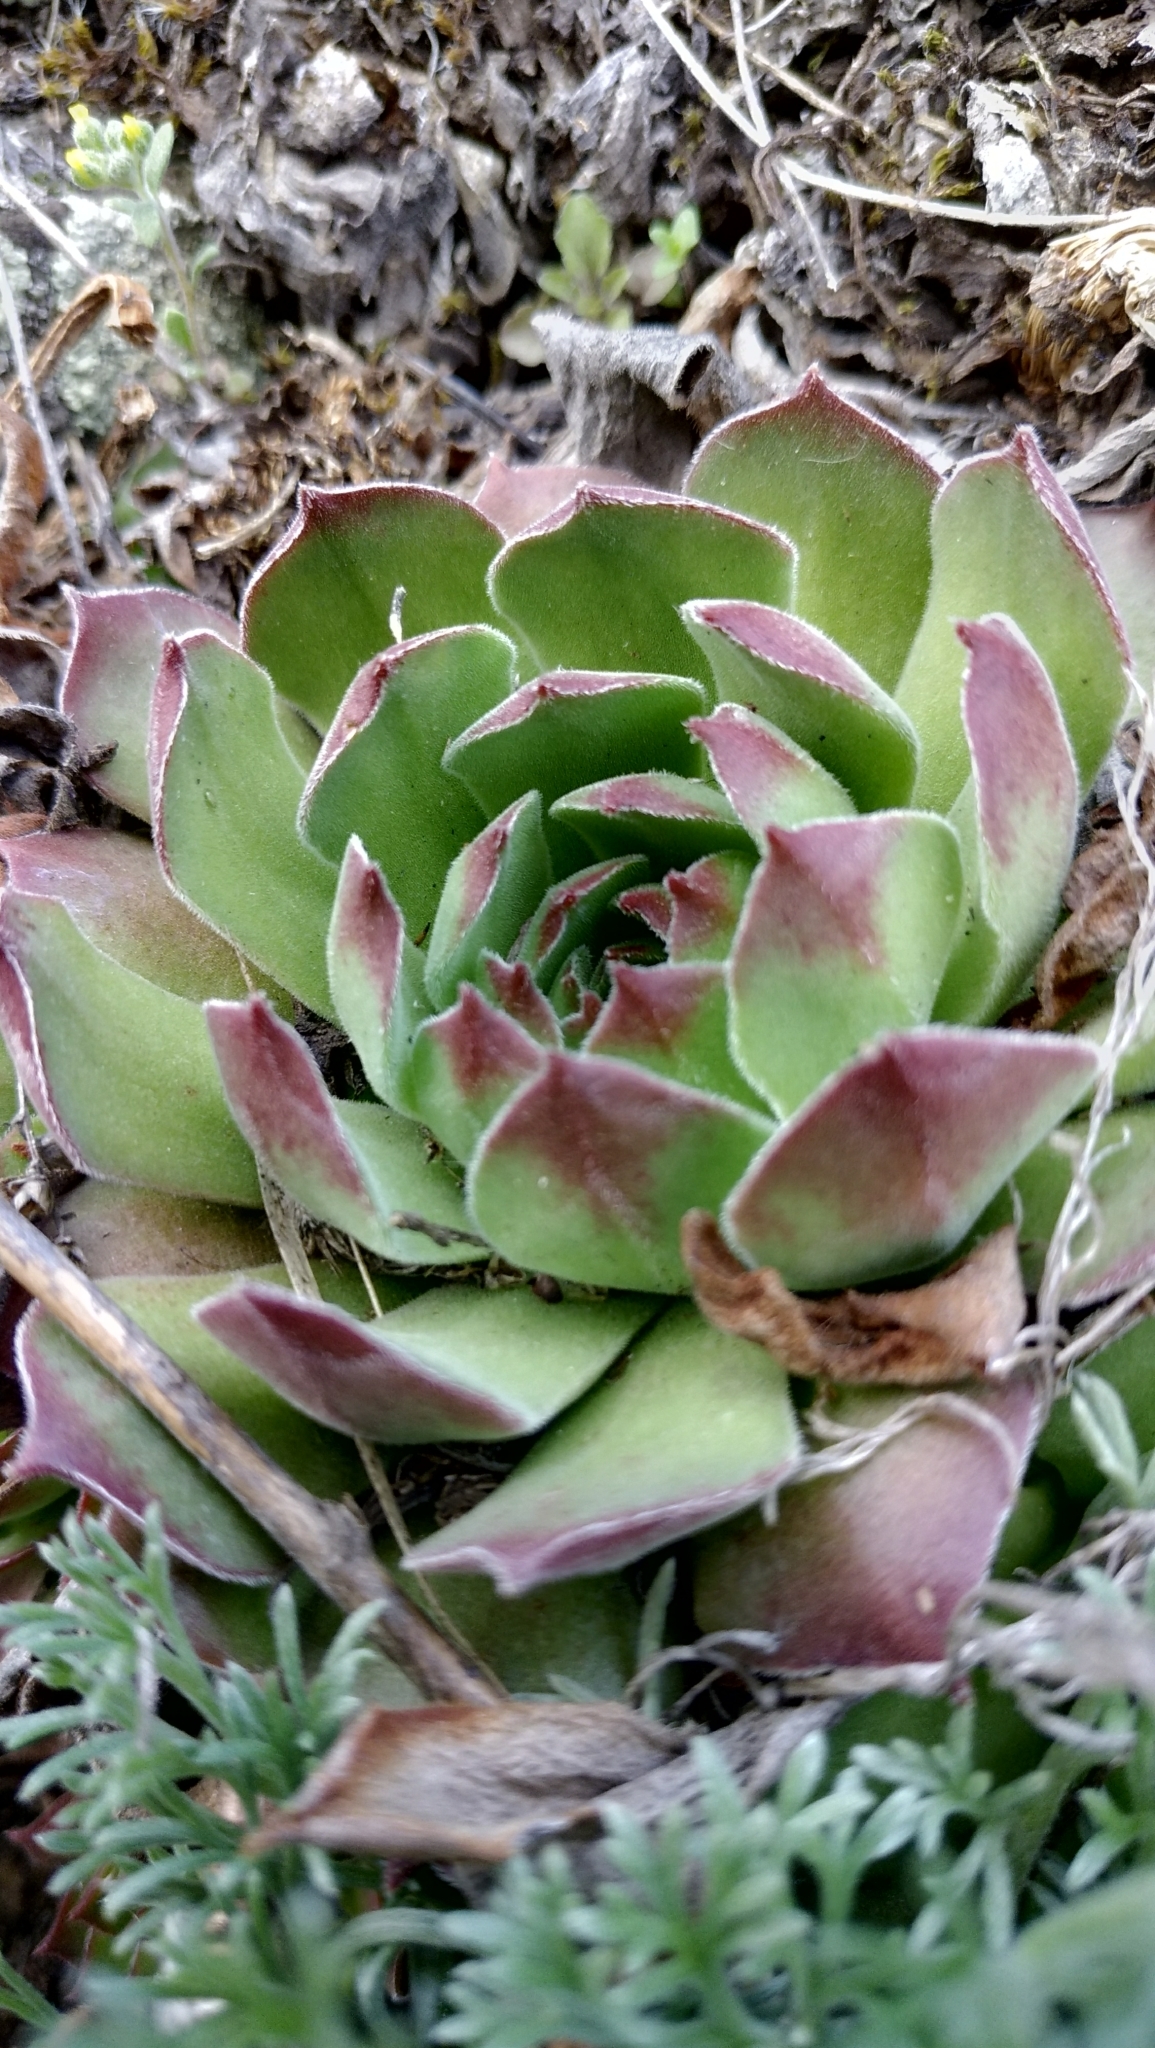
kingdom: Plantae
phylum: Tracheophyta
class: Magnoliopsida
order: Saxifragales
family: Crassulaceae
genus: Sempervivum
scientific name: Sempervivum ruthenicum
